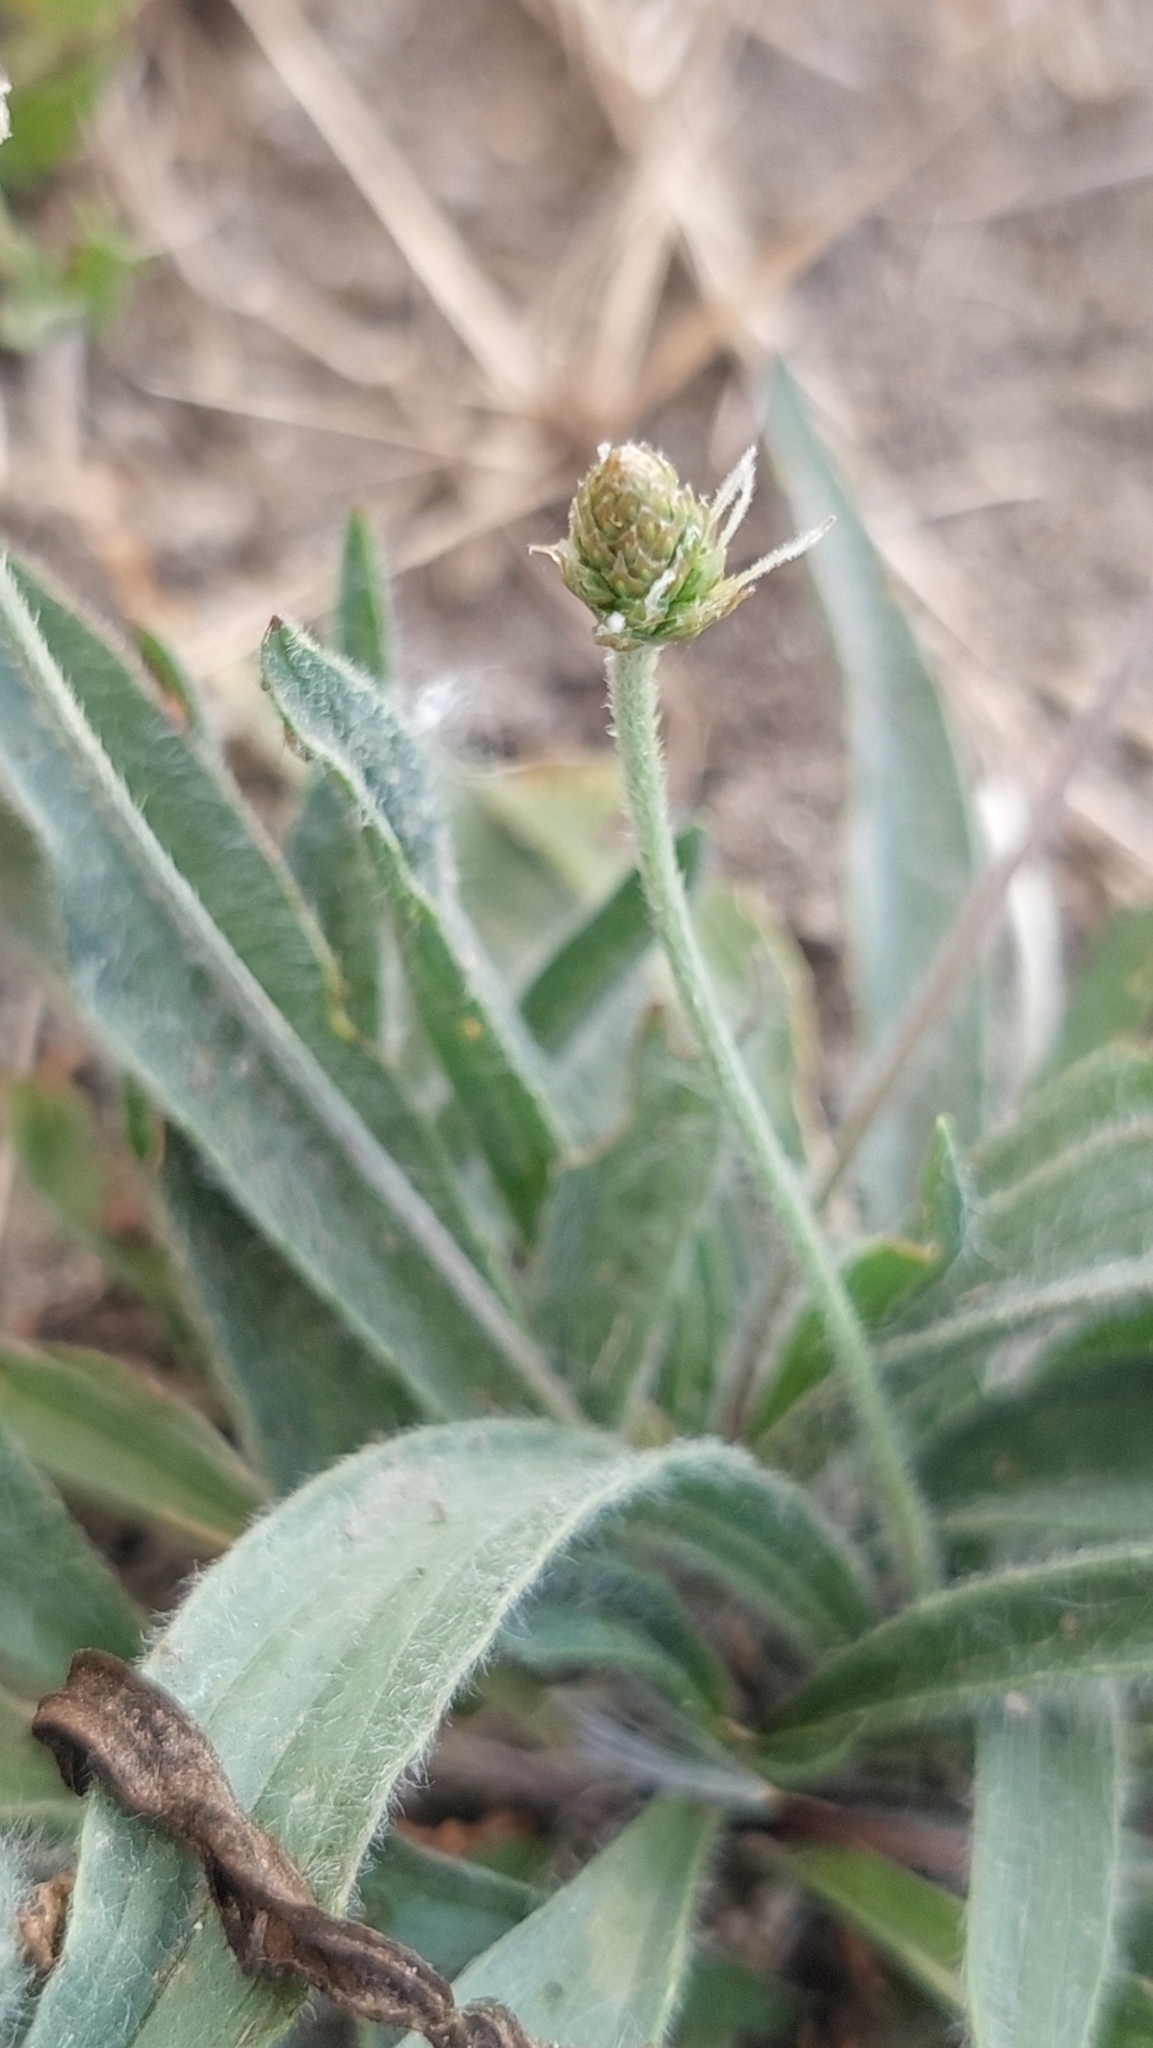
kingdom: Plantae
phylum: Tracheophyta
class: Magnoliopsida
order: Lamiales
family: Plantaginaceae
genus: Plantago
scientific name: Plantago lanceolata
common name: Ribwort plantain
